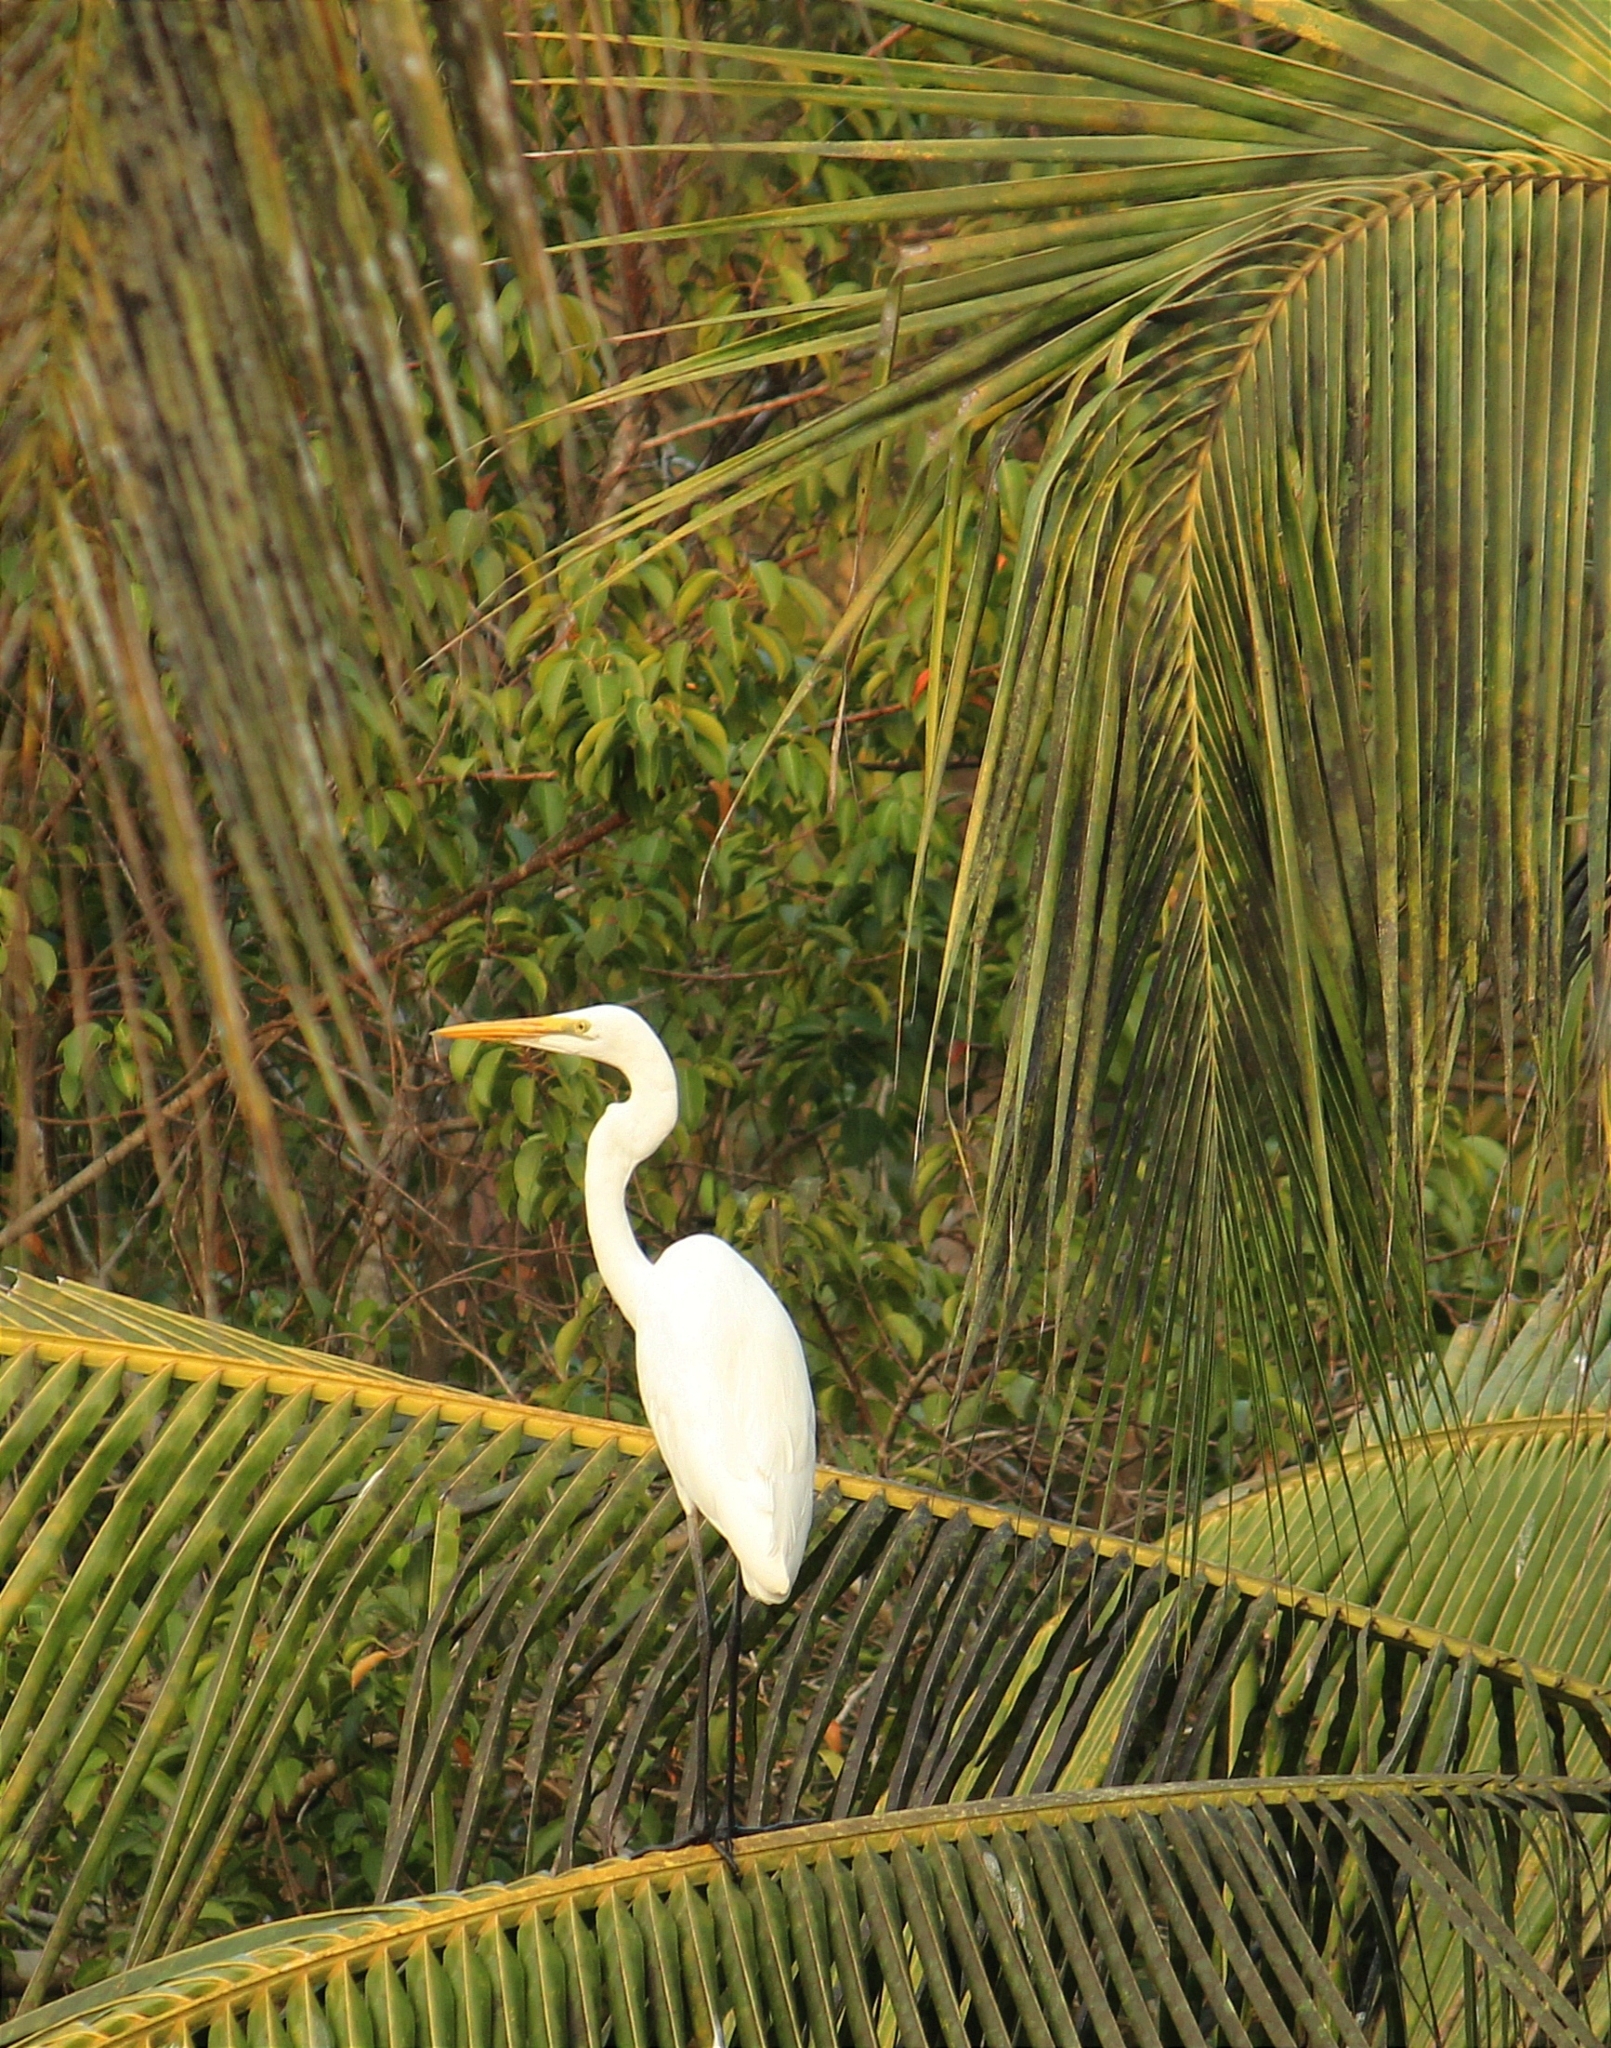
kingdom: Animalia
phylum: Chordata
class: Aves
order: Pelecaniformes
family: Ardeidae
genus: Ardea
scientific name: Ardea alba
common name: Great egret
